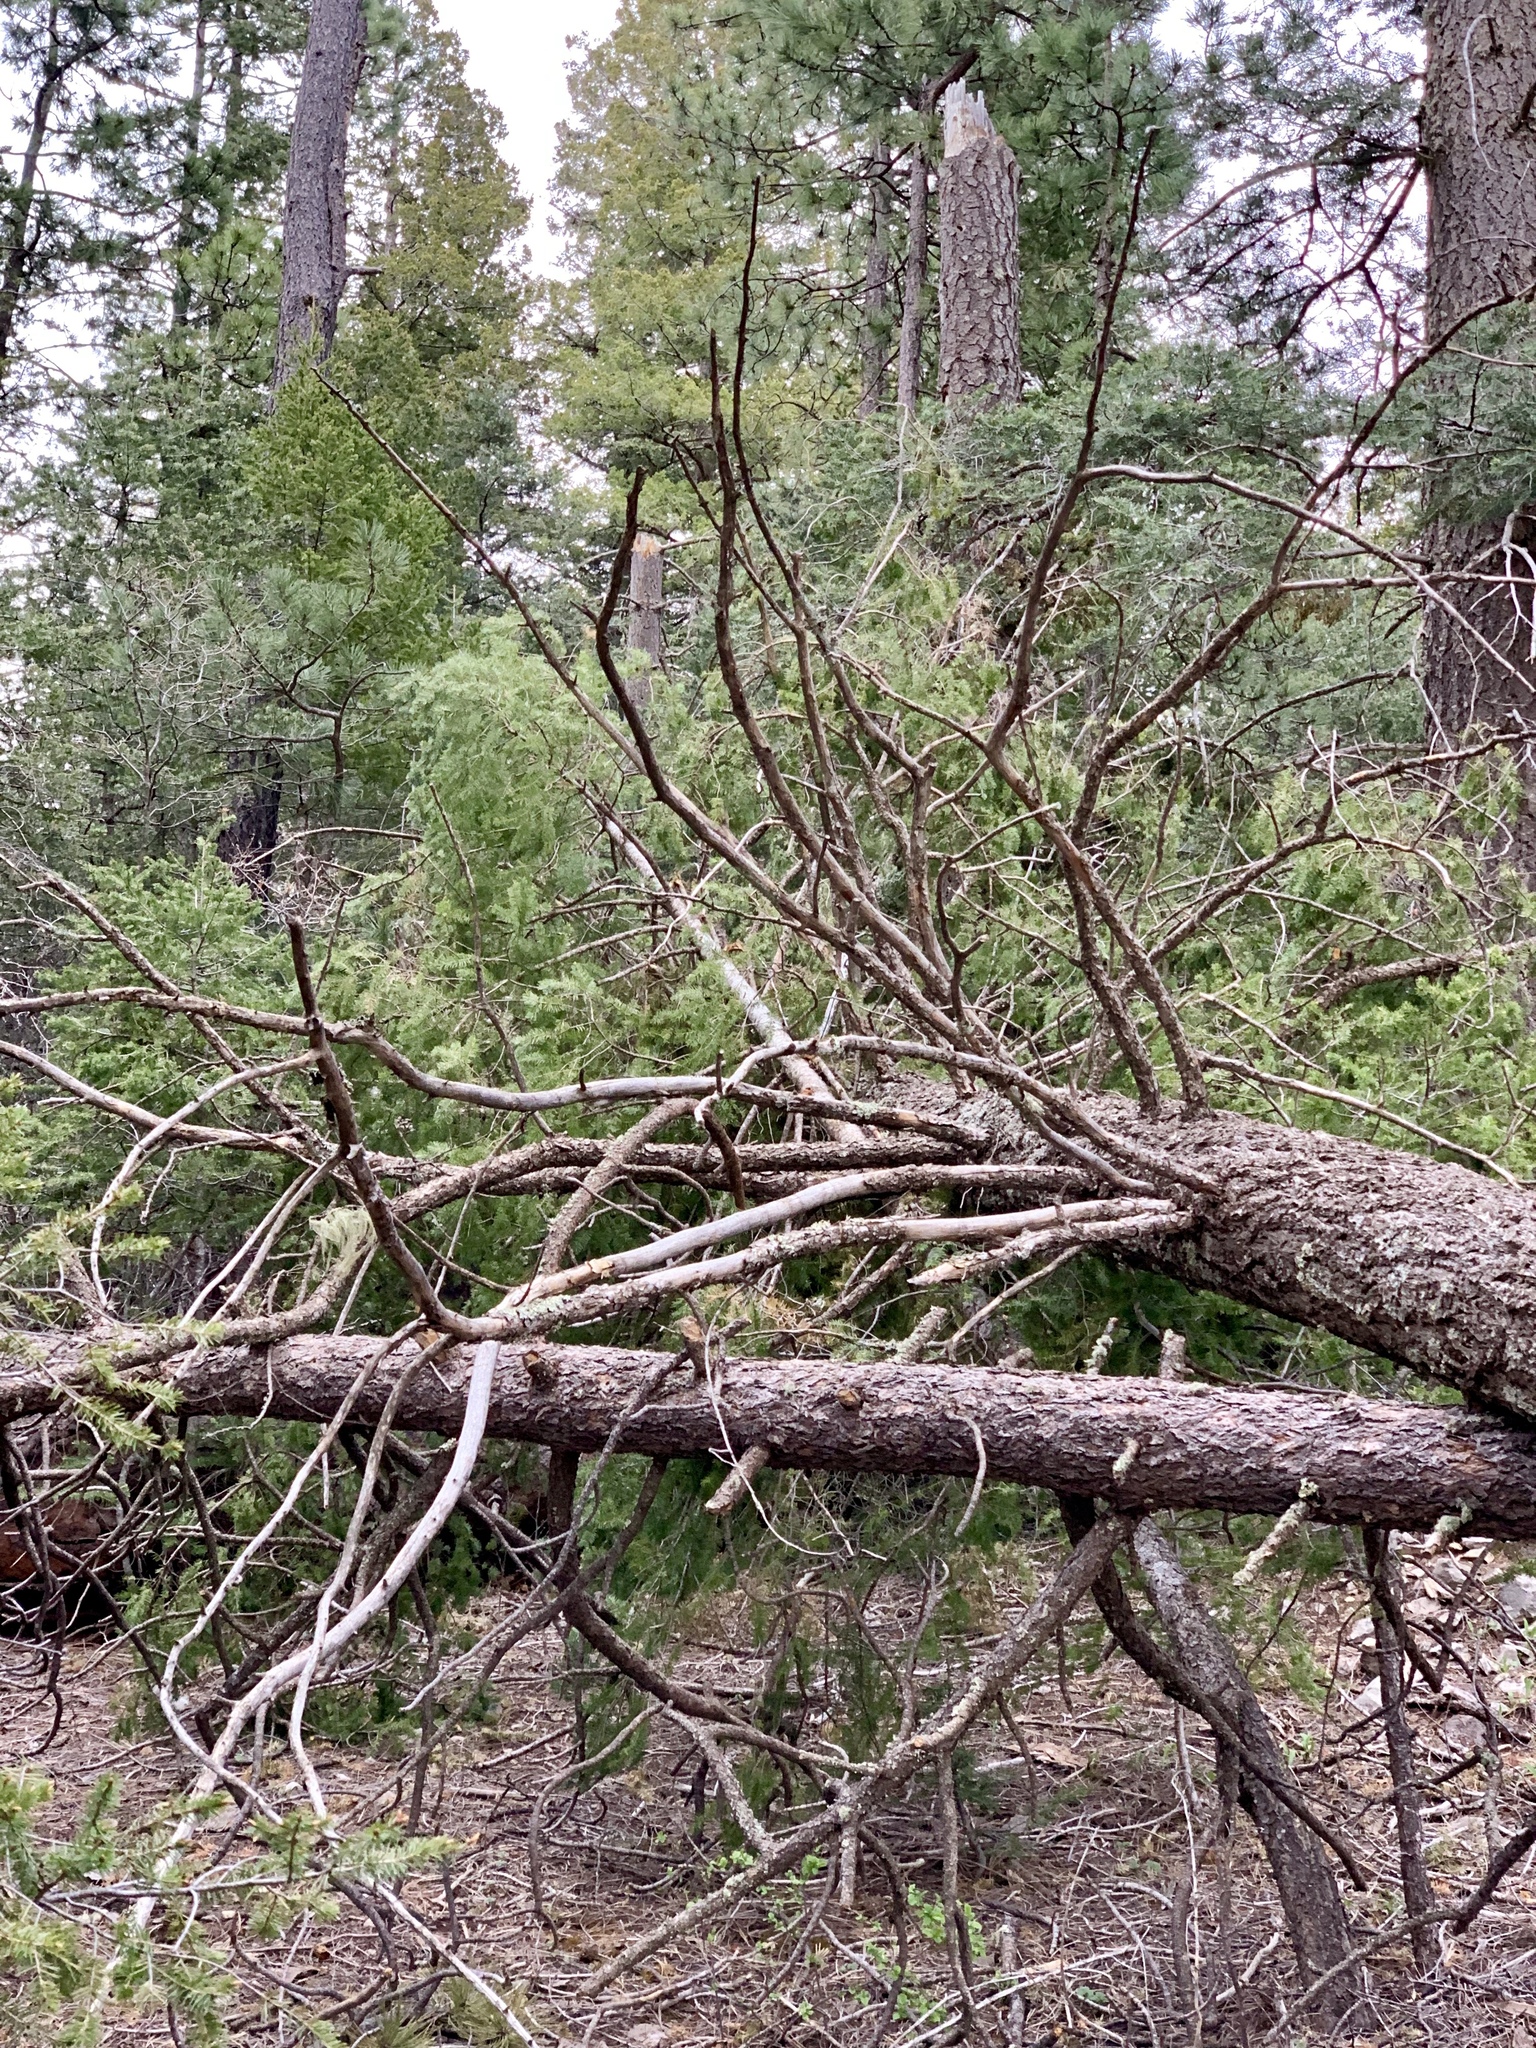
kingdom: Plantae
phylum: Tracheophyta
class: Pinopsida
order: Pinales
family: Pinaceae
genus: Pseudotsuga
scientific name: Pseudotsuga menziesii
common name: Douglas fir
